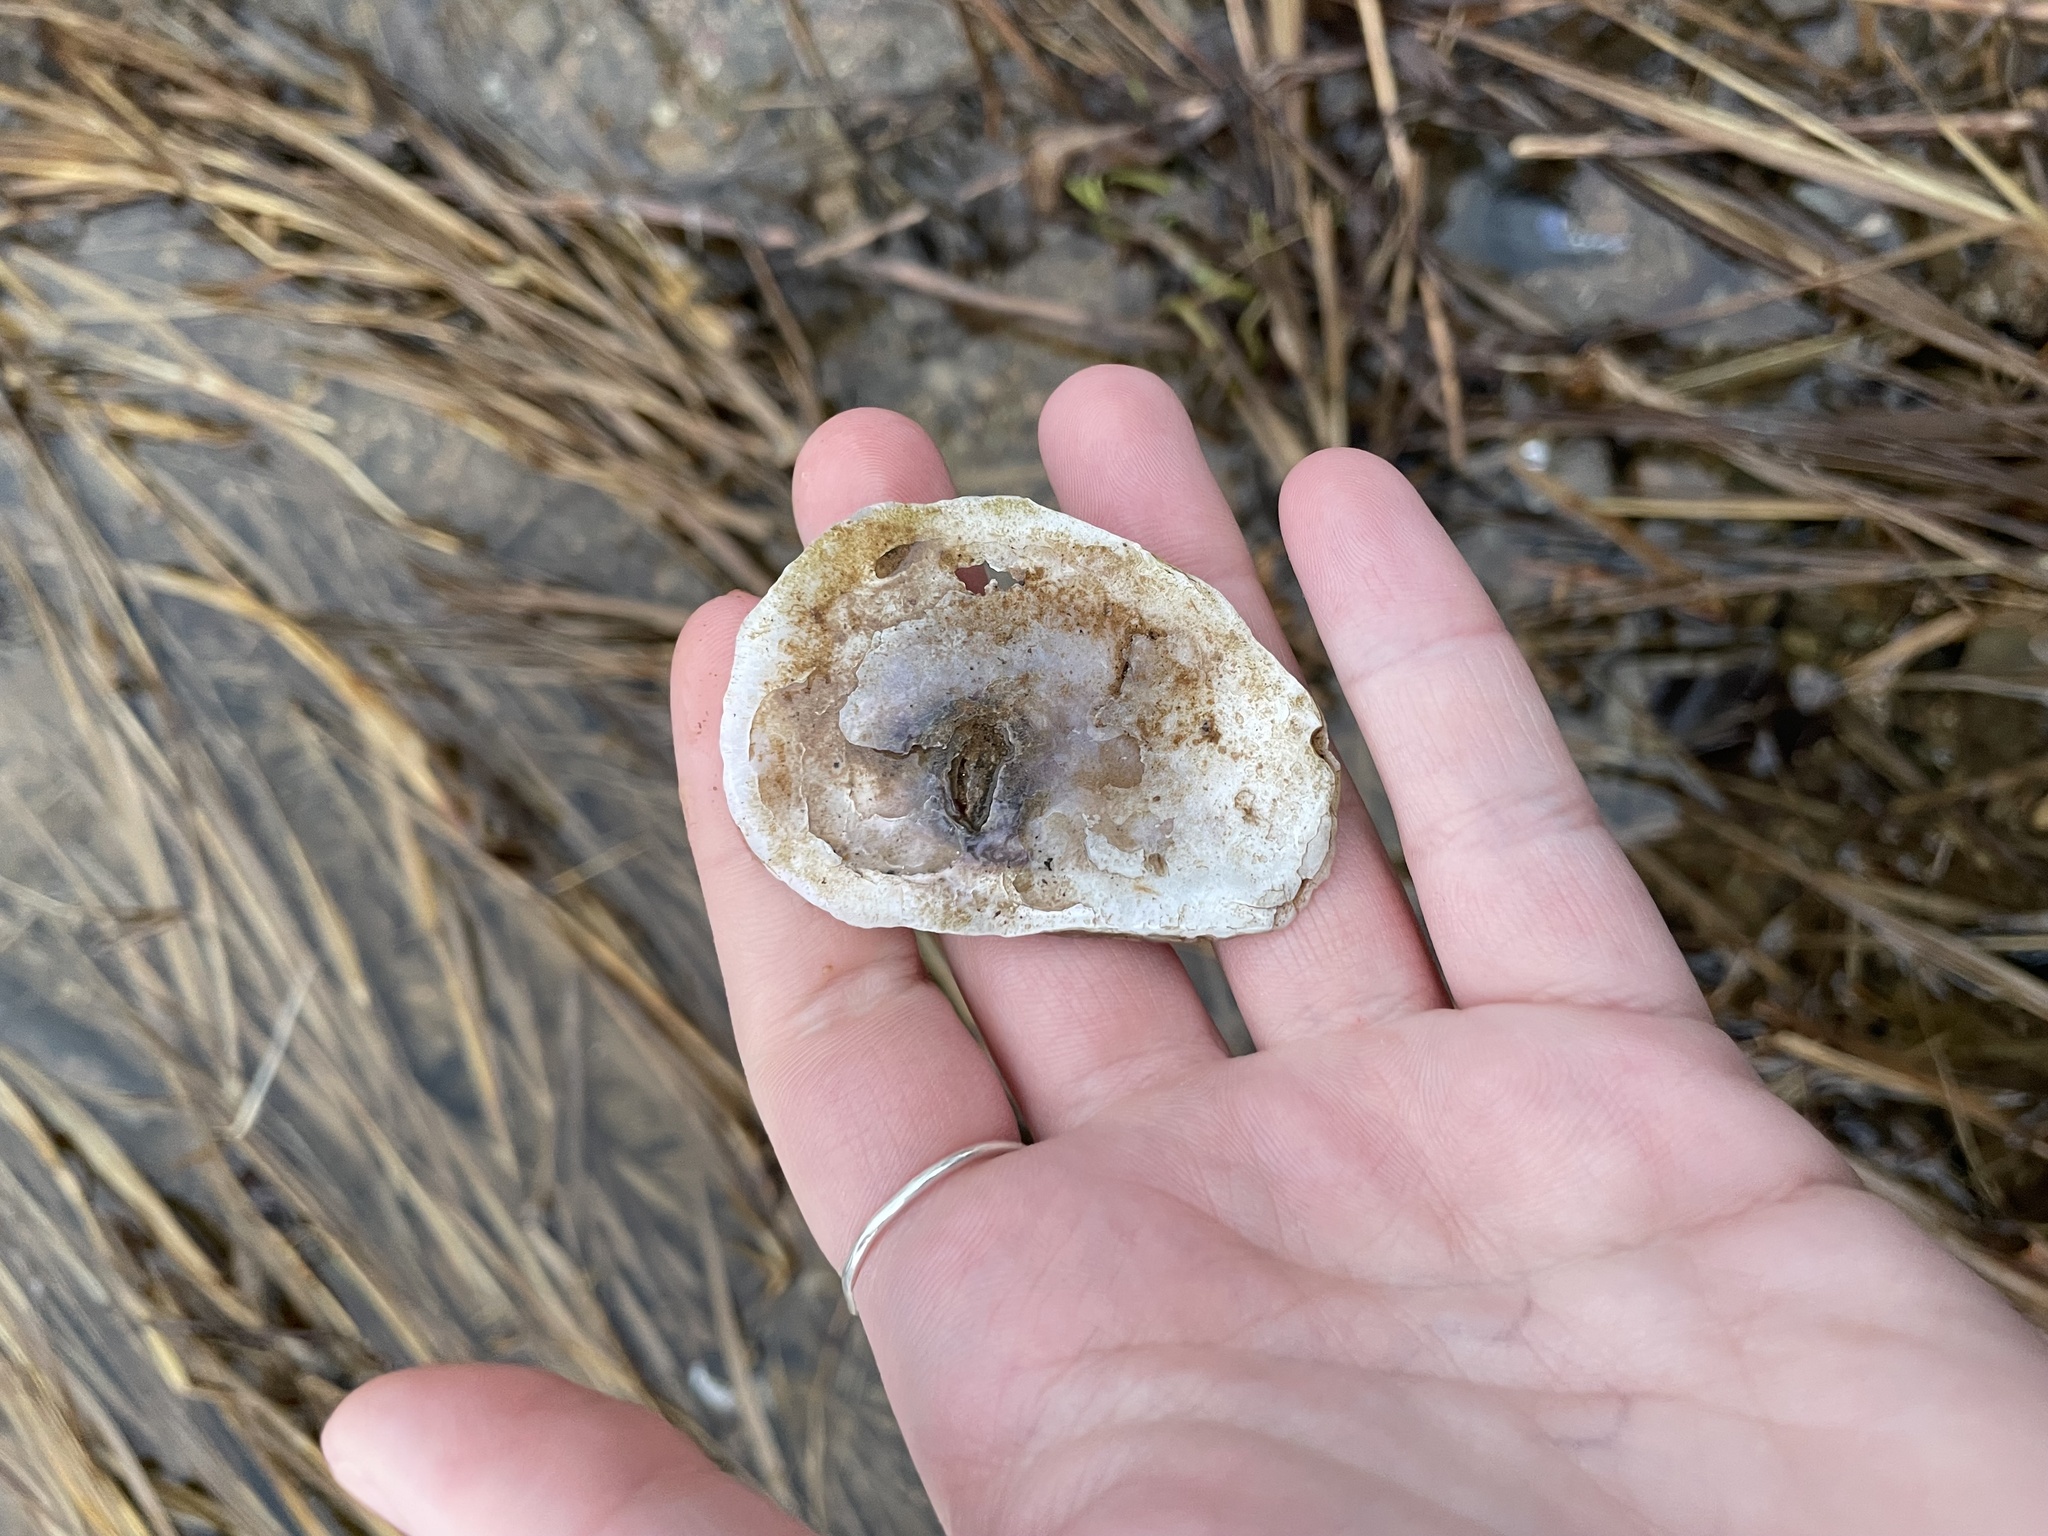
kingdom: Animalia
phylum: Mollusca
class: Bivalvia
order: Ostreida
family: Ostreidae
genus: Crassostrea
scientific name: Crassostrea virginica
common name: American oyster
